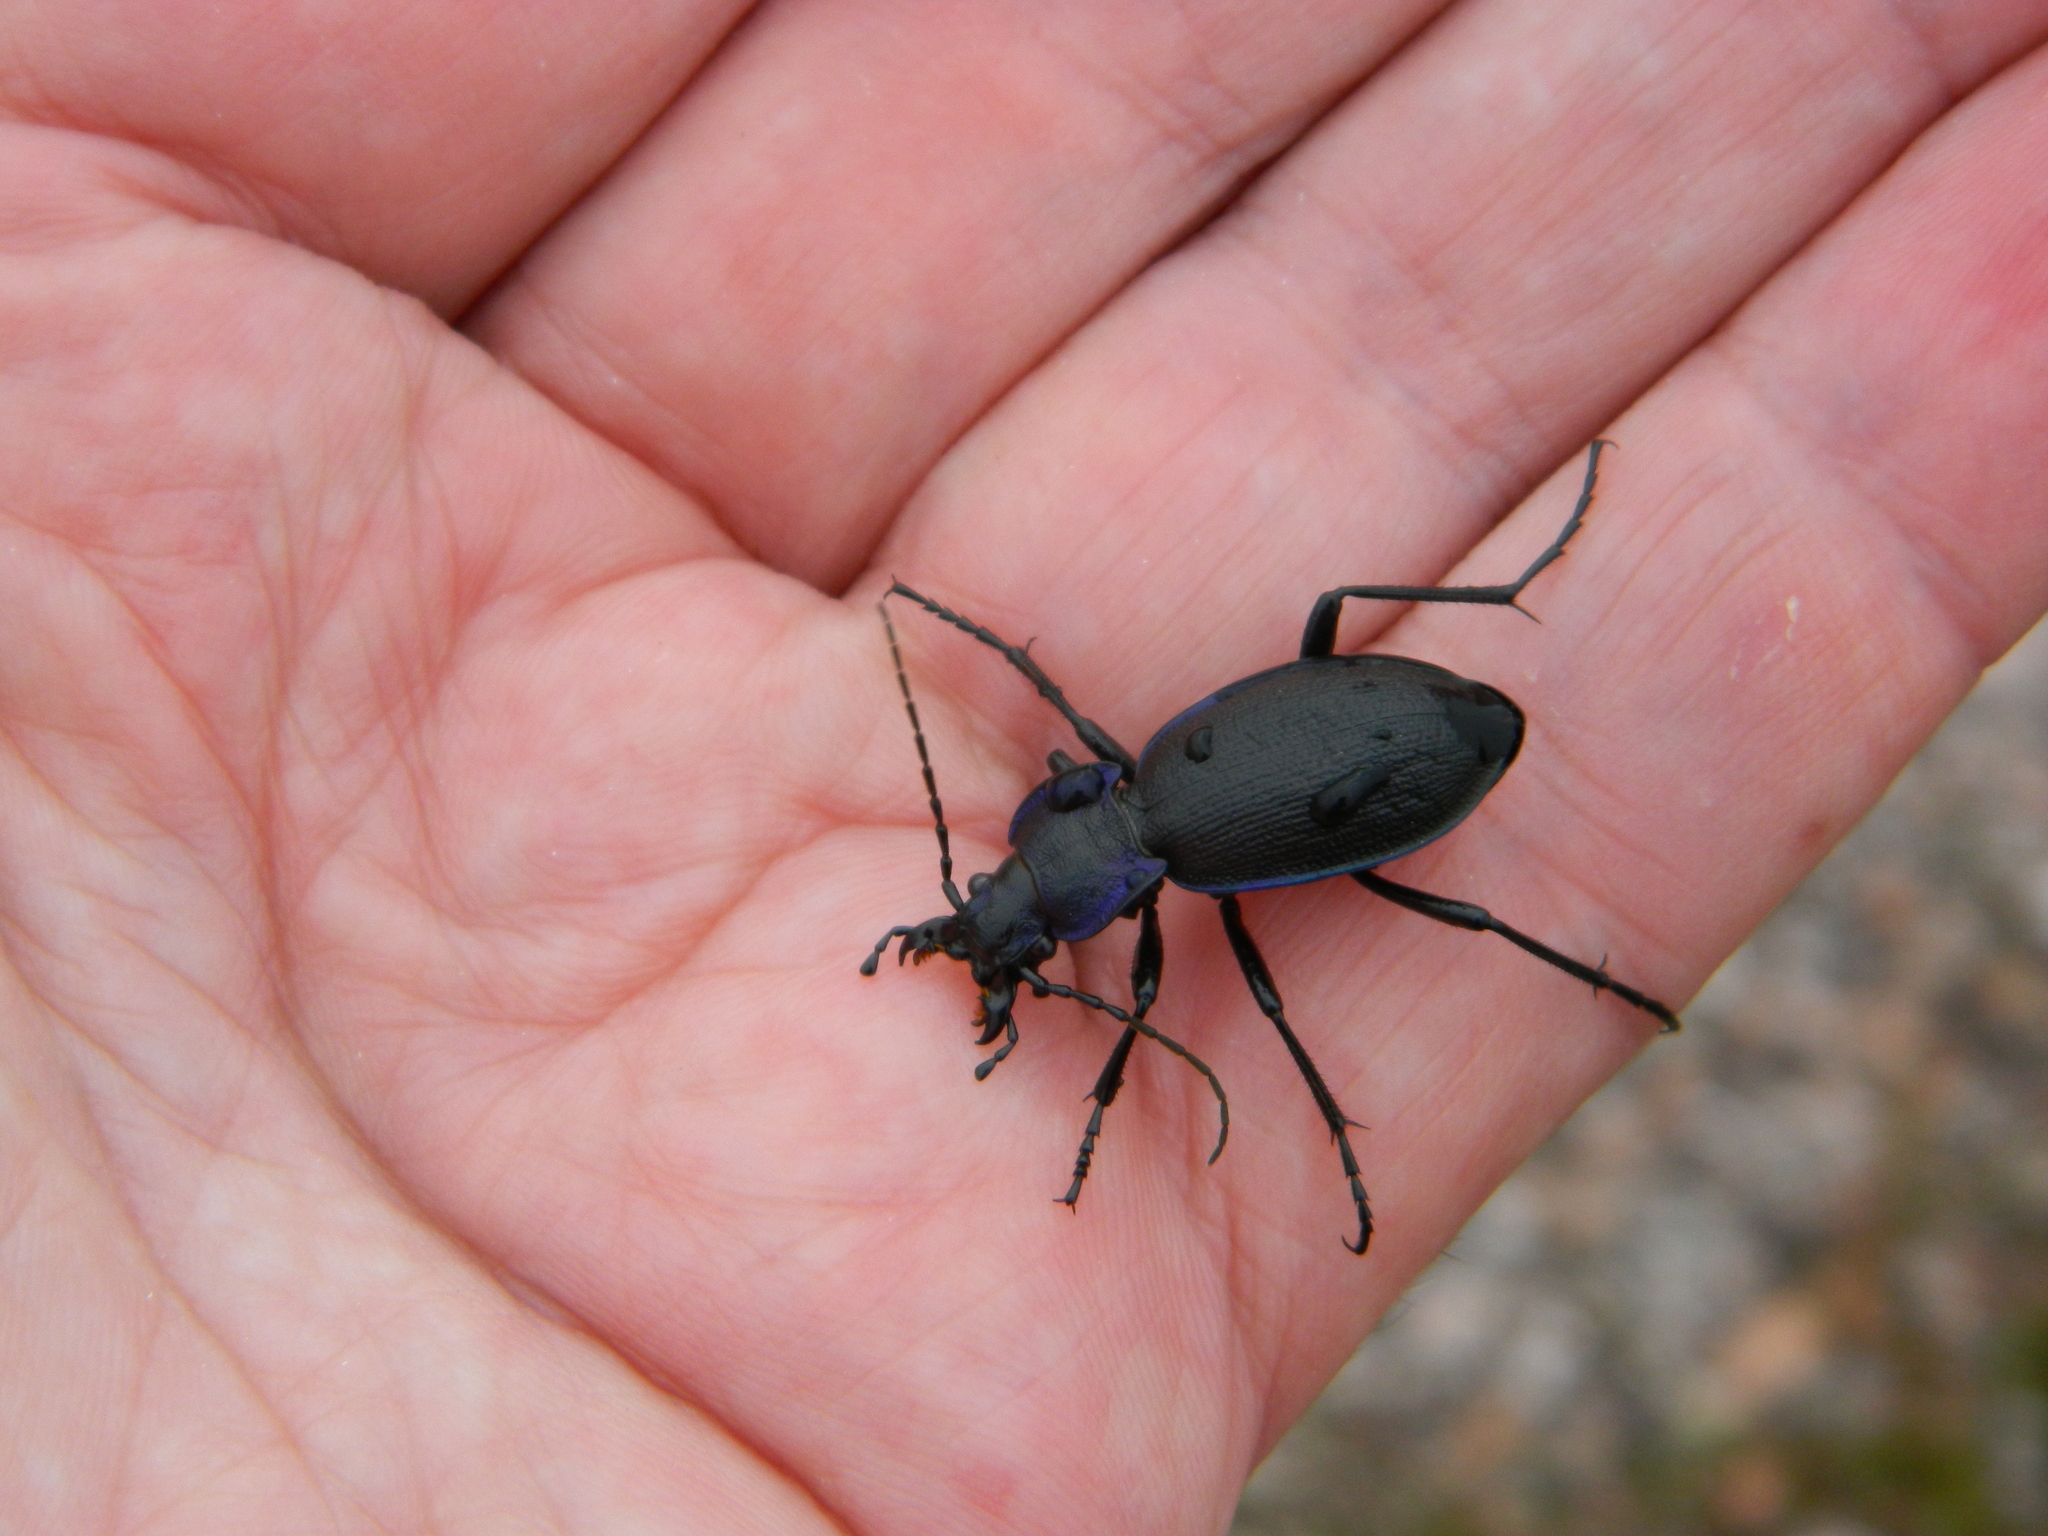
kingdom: Animalia
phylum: Arthropoda
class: Insecta
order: Coleoptera
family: Carabidae
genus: Carabus
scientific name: Carabus violaceus
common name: Violet ground beetle
